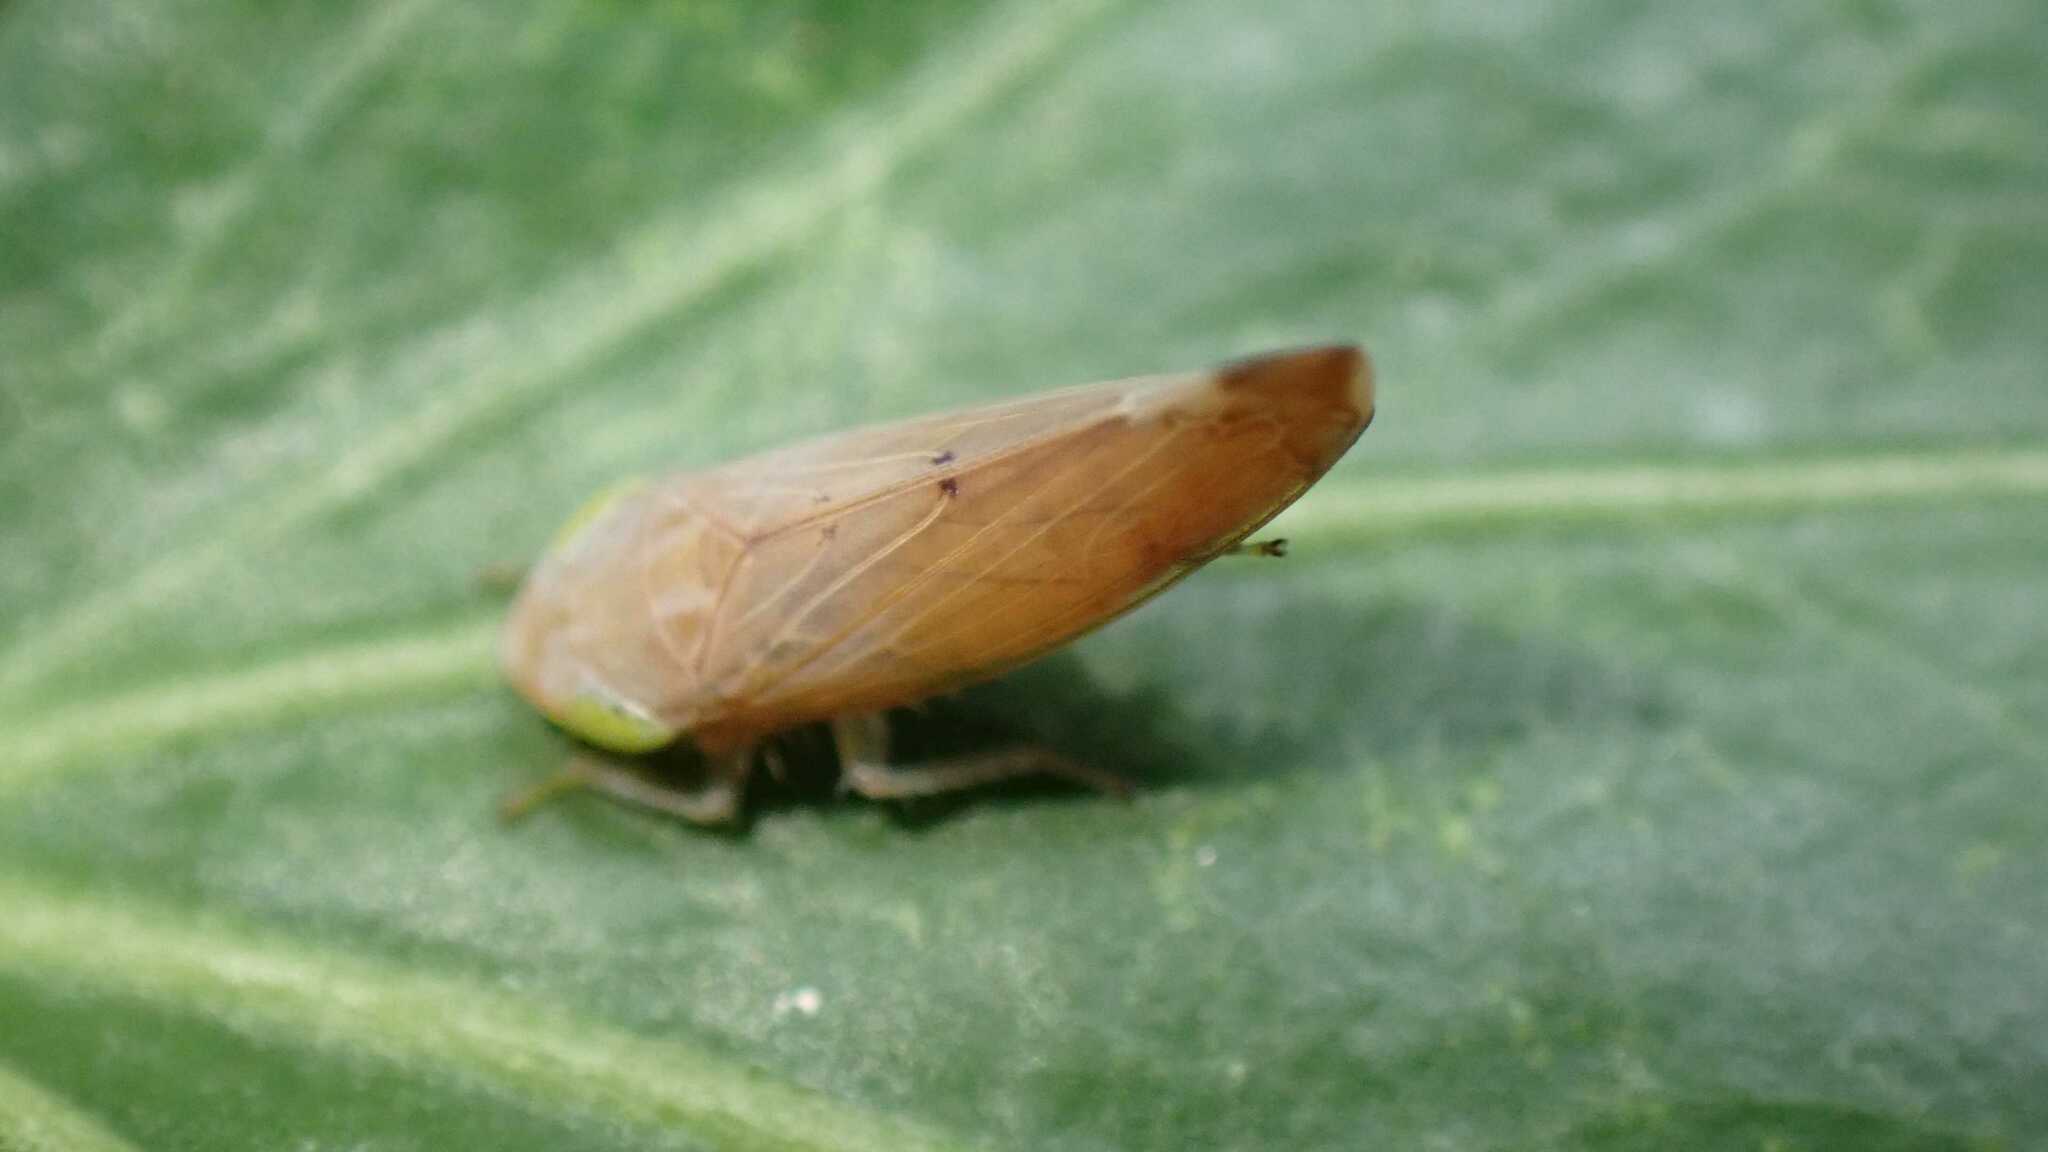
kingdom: Animalia
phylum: Arthropoda
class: Insecta
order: Hemiptera
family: Cicadellidae
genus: Synophropsis
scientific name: Synophropsis lauri
